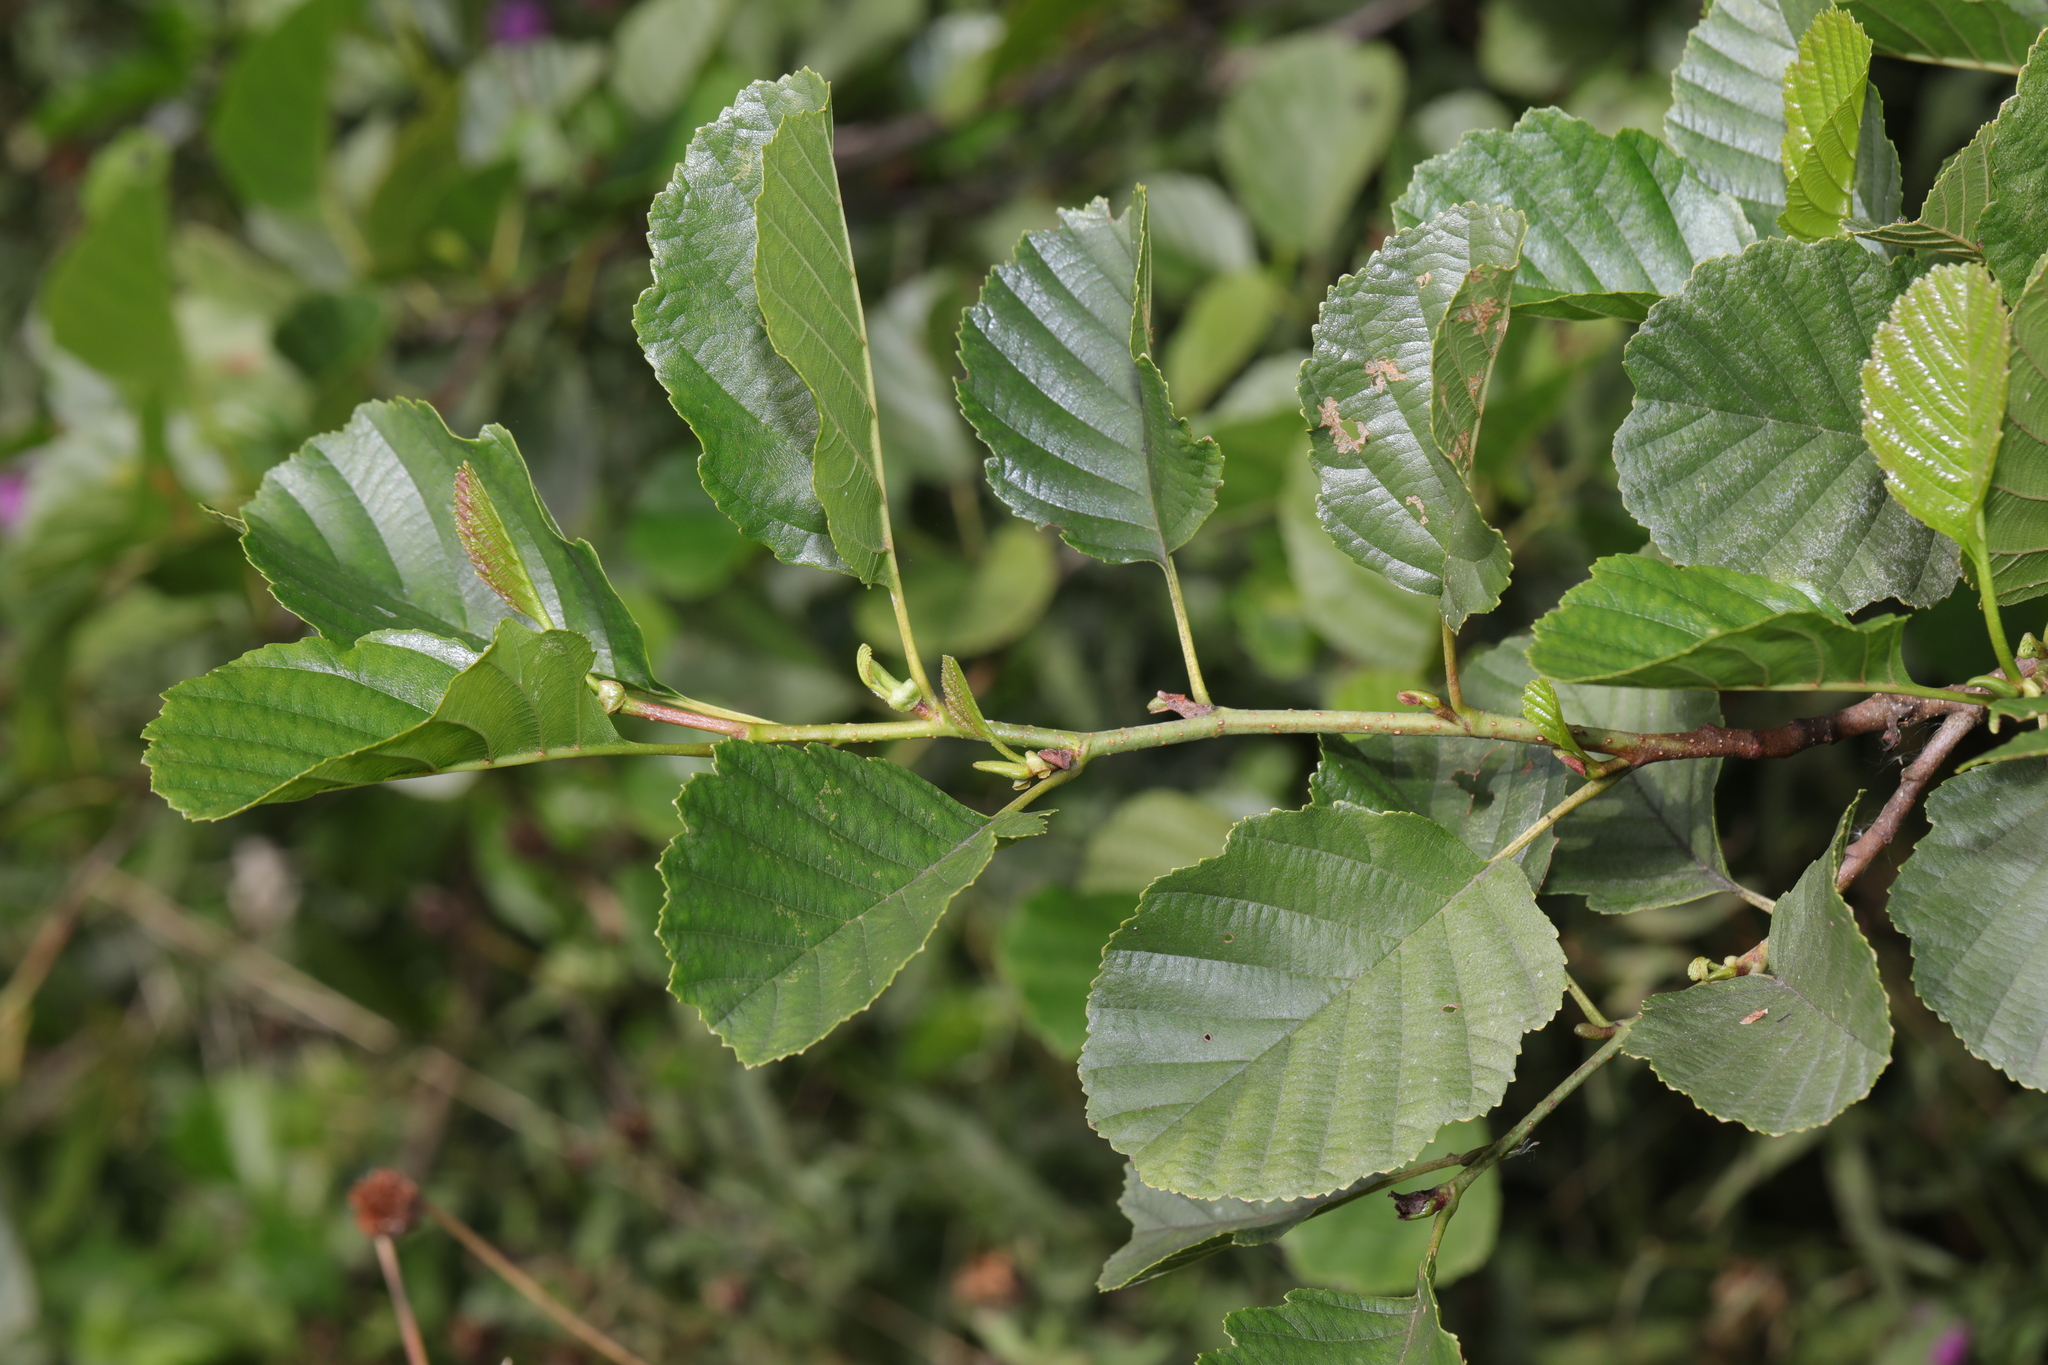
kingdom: Plantae
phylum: Tracheophyta
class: Magnoliopsida
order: Fagales
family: Betulaceae
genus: Alnus
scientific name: Alnus glutinosa
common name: Black alder
